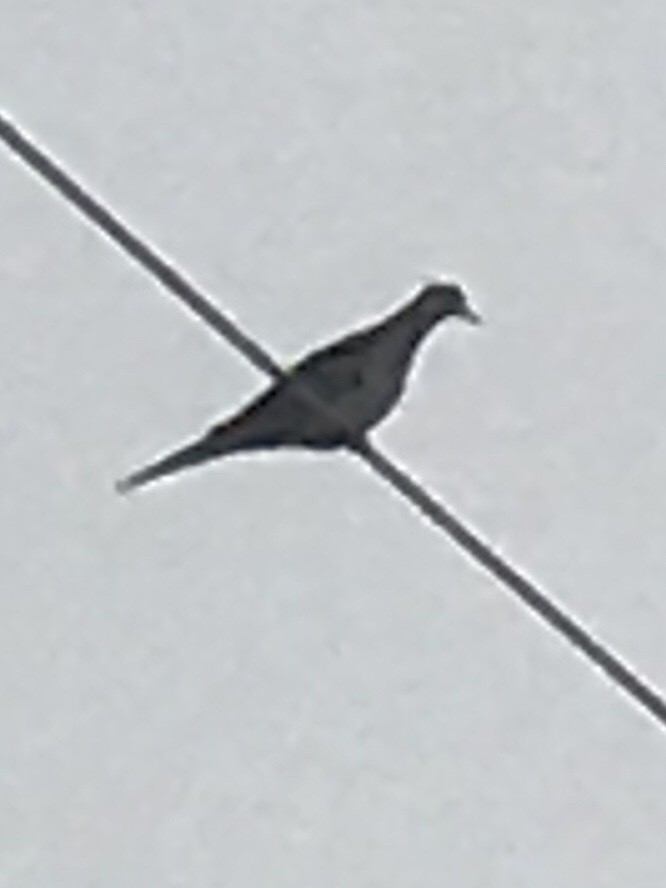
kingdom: Animalia
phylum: Chordata
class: Aves
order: Columbiformes
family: Columbidae
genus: Zenaida
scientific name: Zenaida macroura
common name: Mourning dove
